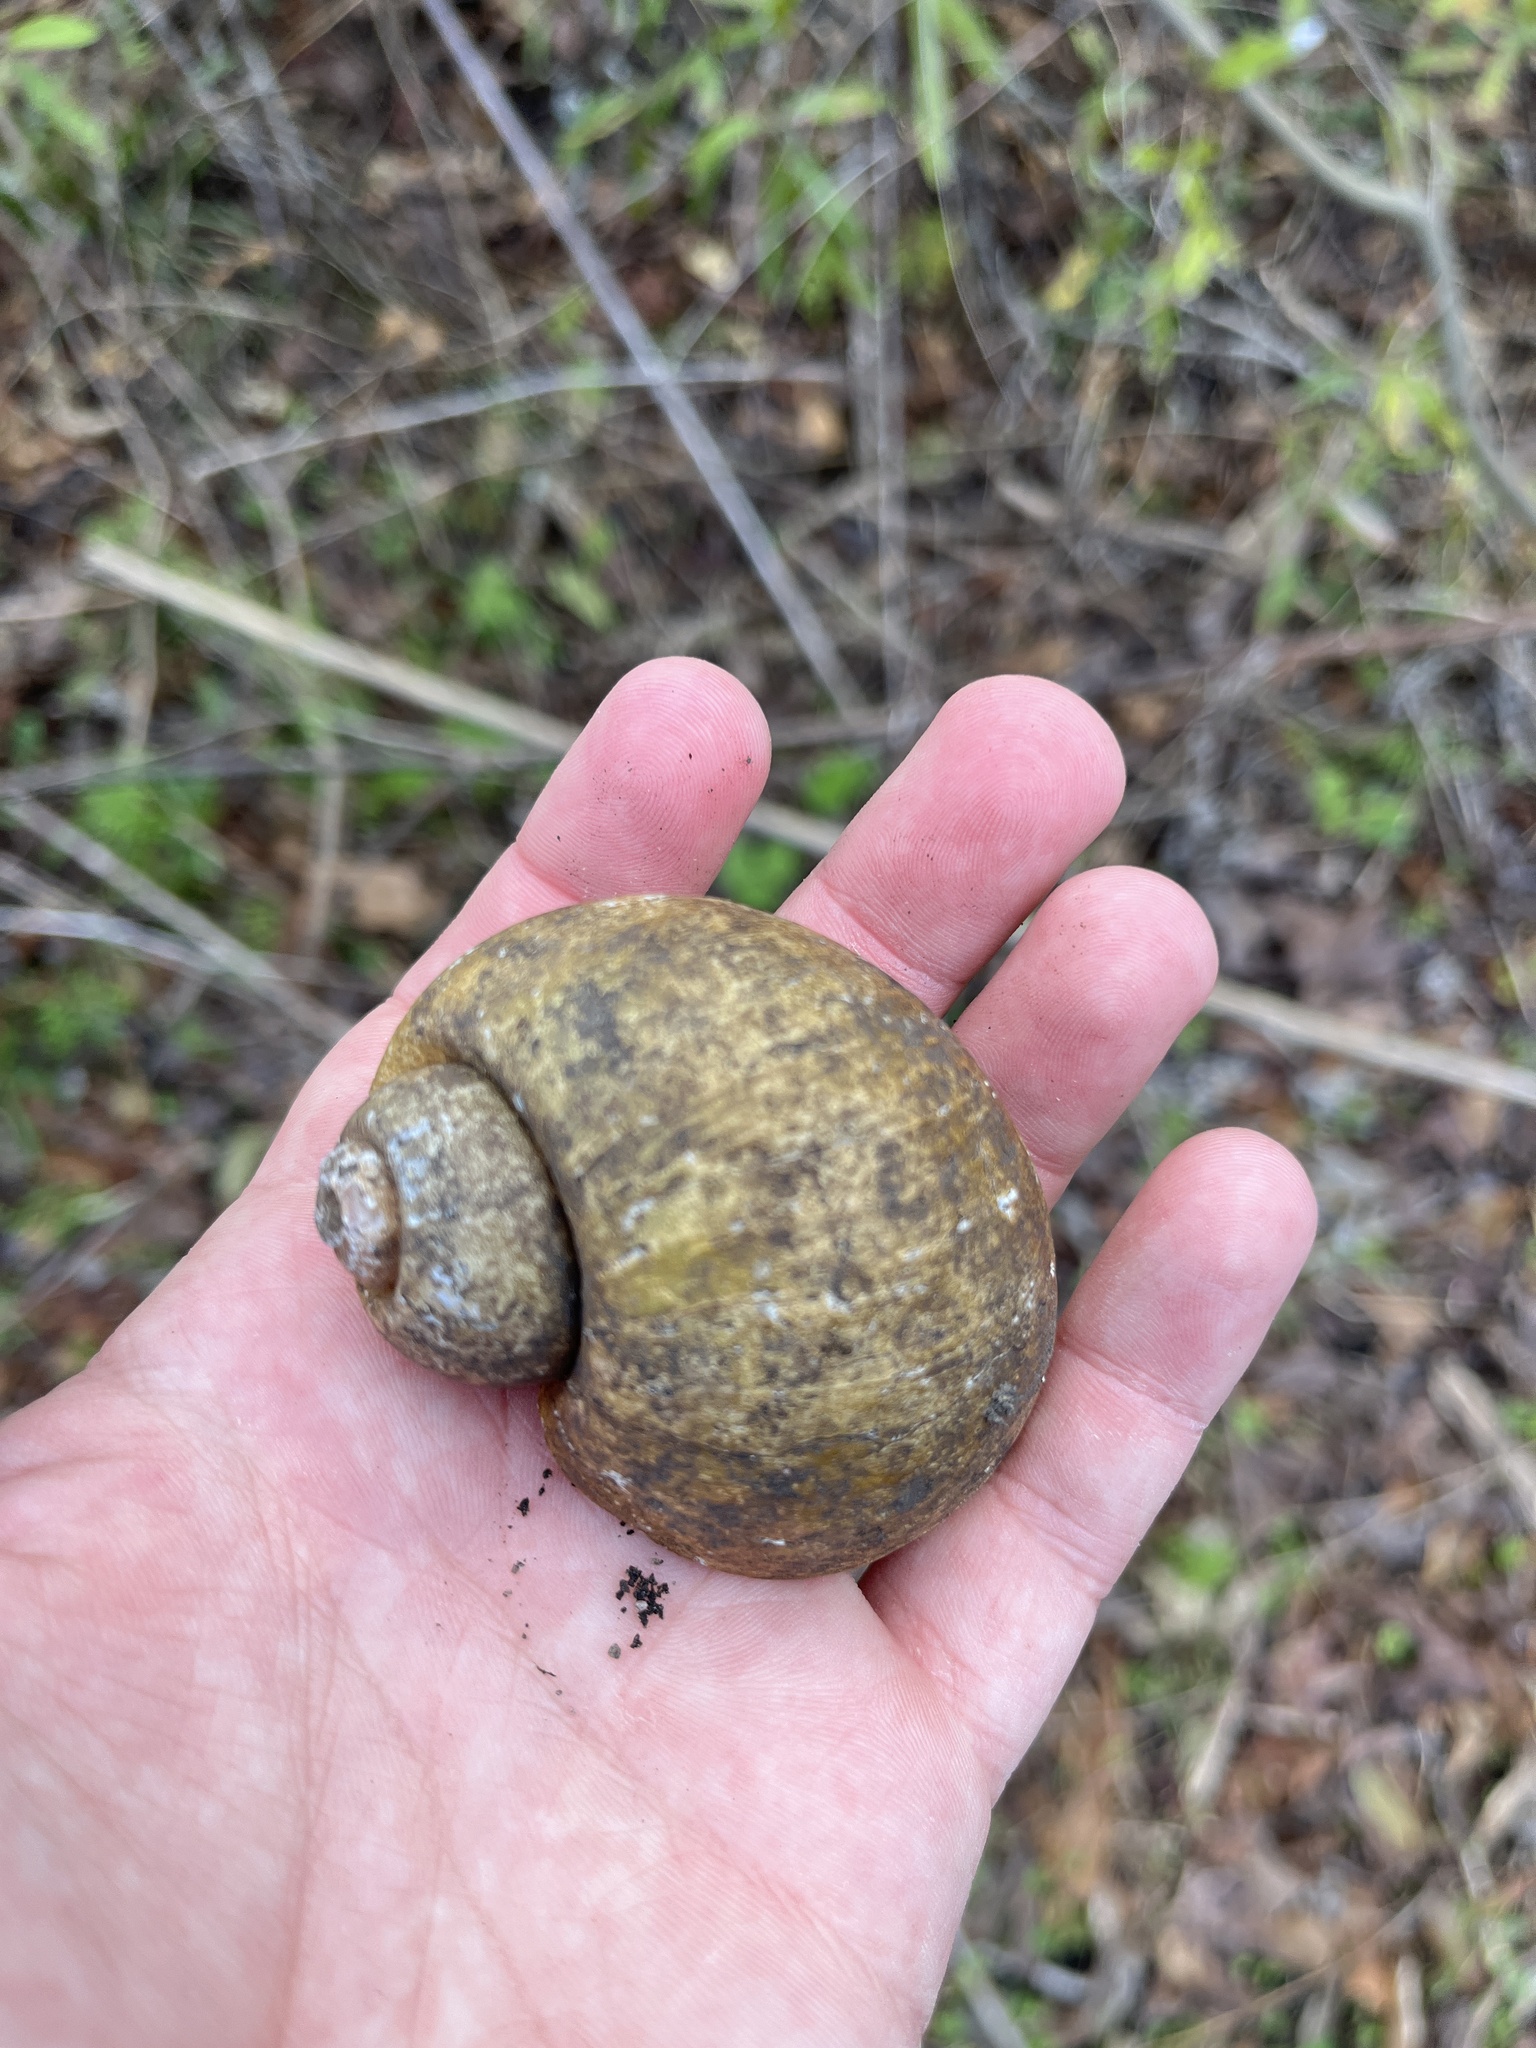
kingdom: Animalia
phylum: Mollusca
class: Gastropoda
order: Architaenioglossa
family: Ampullariidae
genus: Pomacea
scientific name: Pomacea maculata
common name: Giant applesnail
